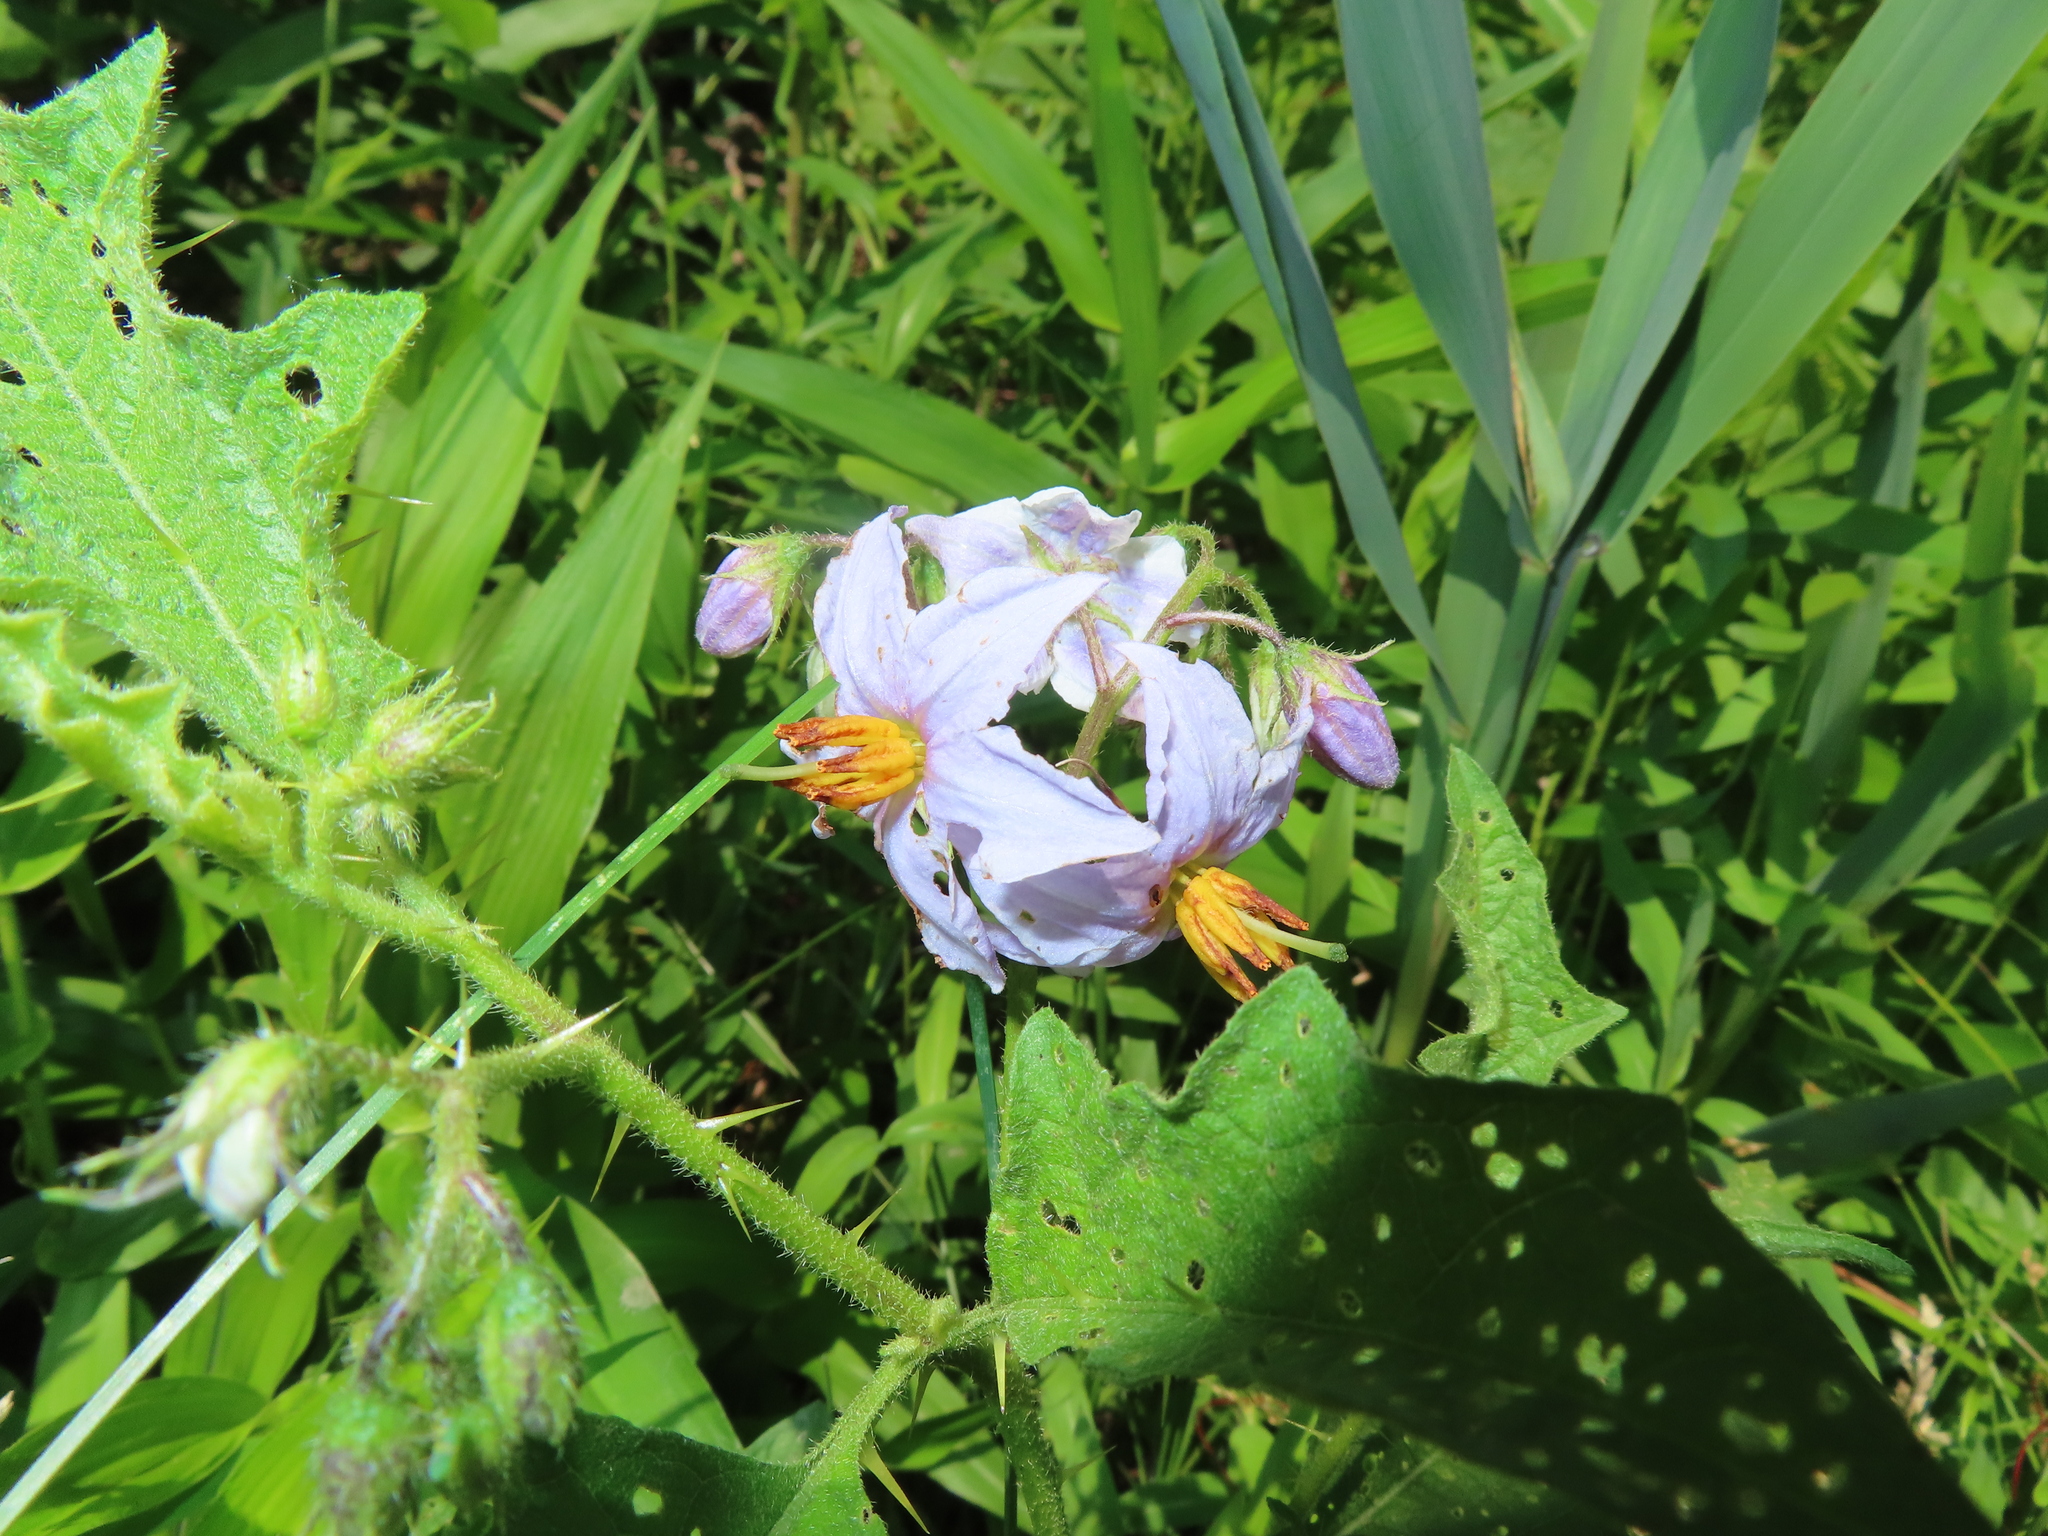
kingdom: Plantae
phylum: Tracheophyta
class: Magnoliopsida
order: Solanales
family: Solanaceae
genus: Solanum
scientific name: Solanum carolinense
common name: Horse-nettle
